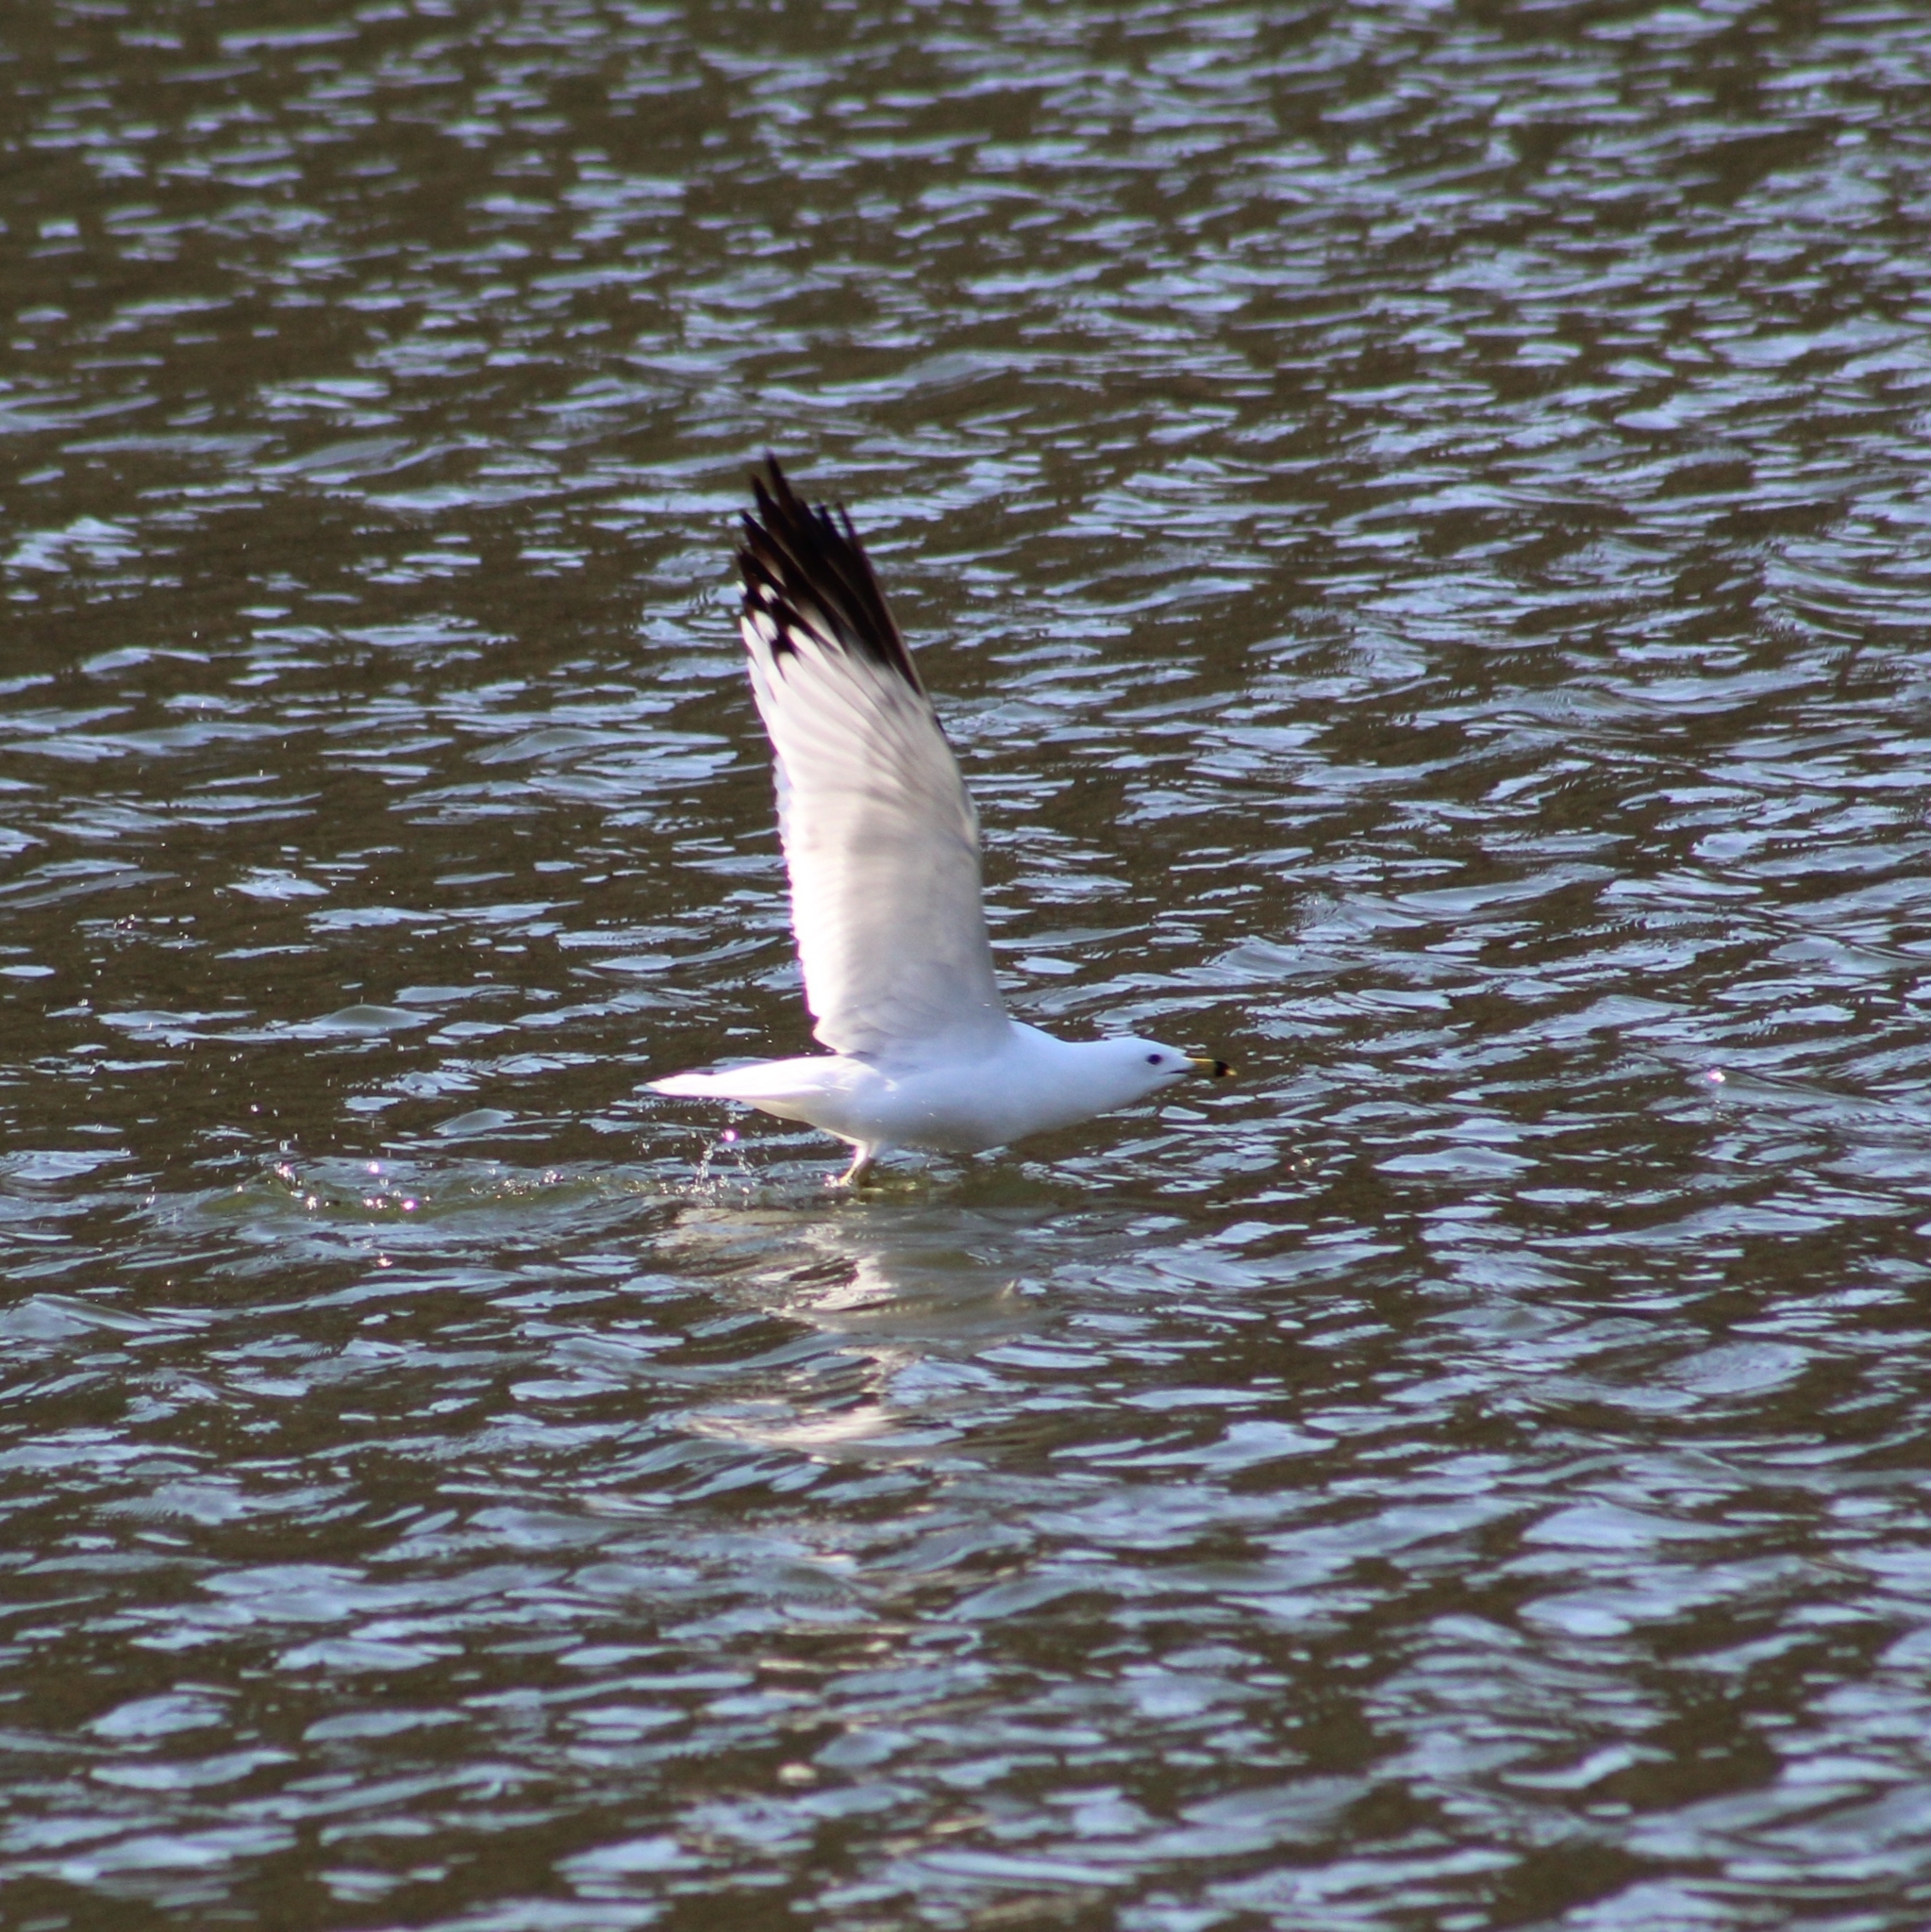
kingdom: Animalia
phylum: Chordata
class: Aves
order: Charadriiformes
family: Laridae
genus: Larus
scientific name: Larus delawarensis
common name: Ring-billed gull
